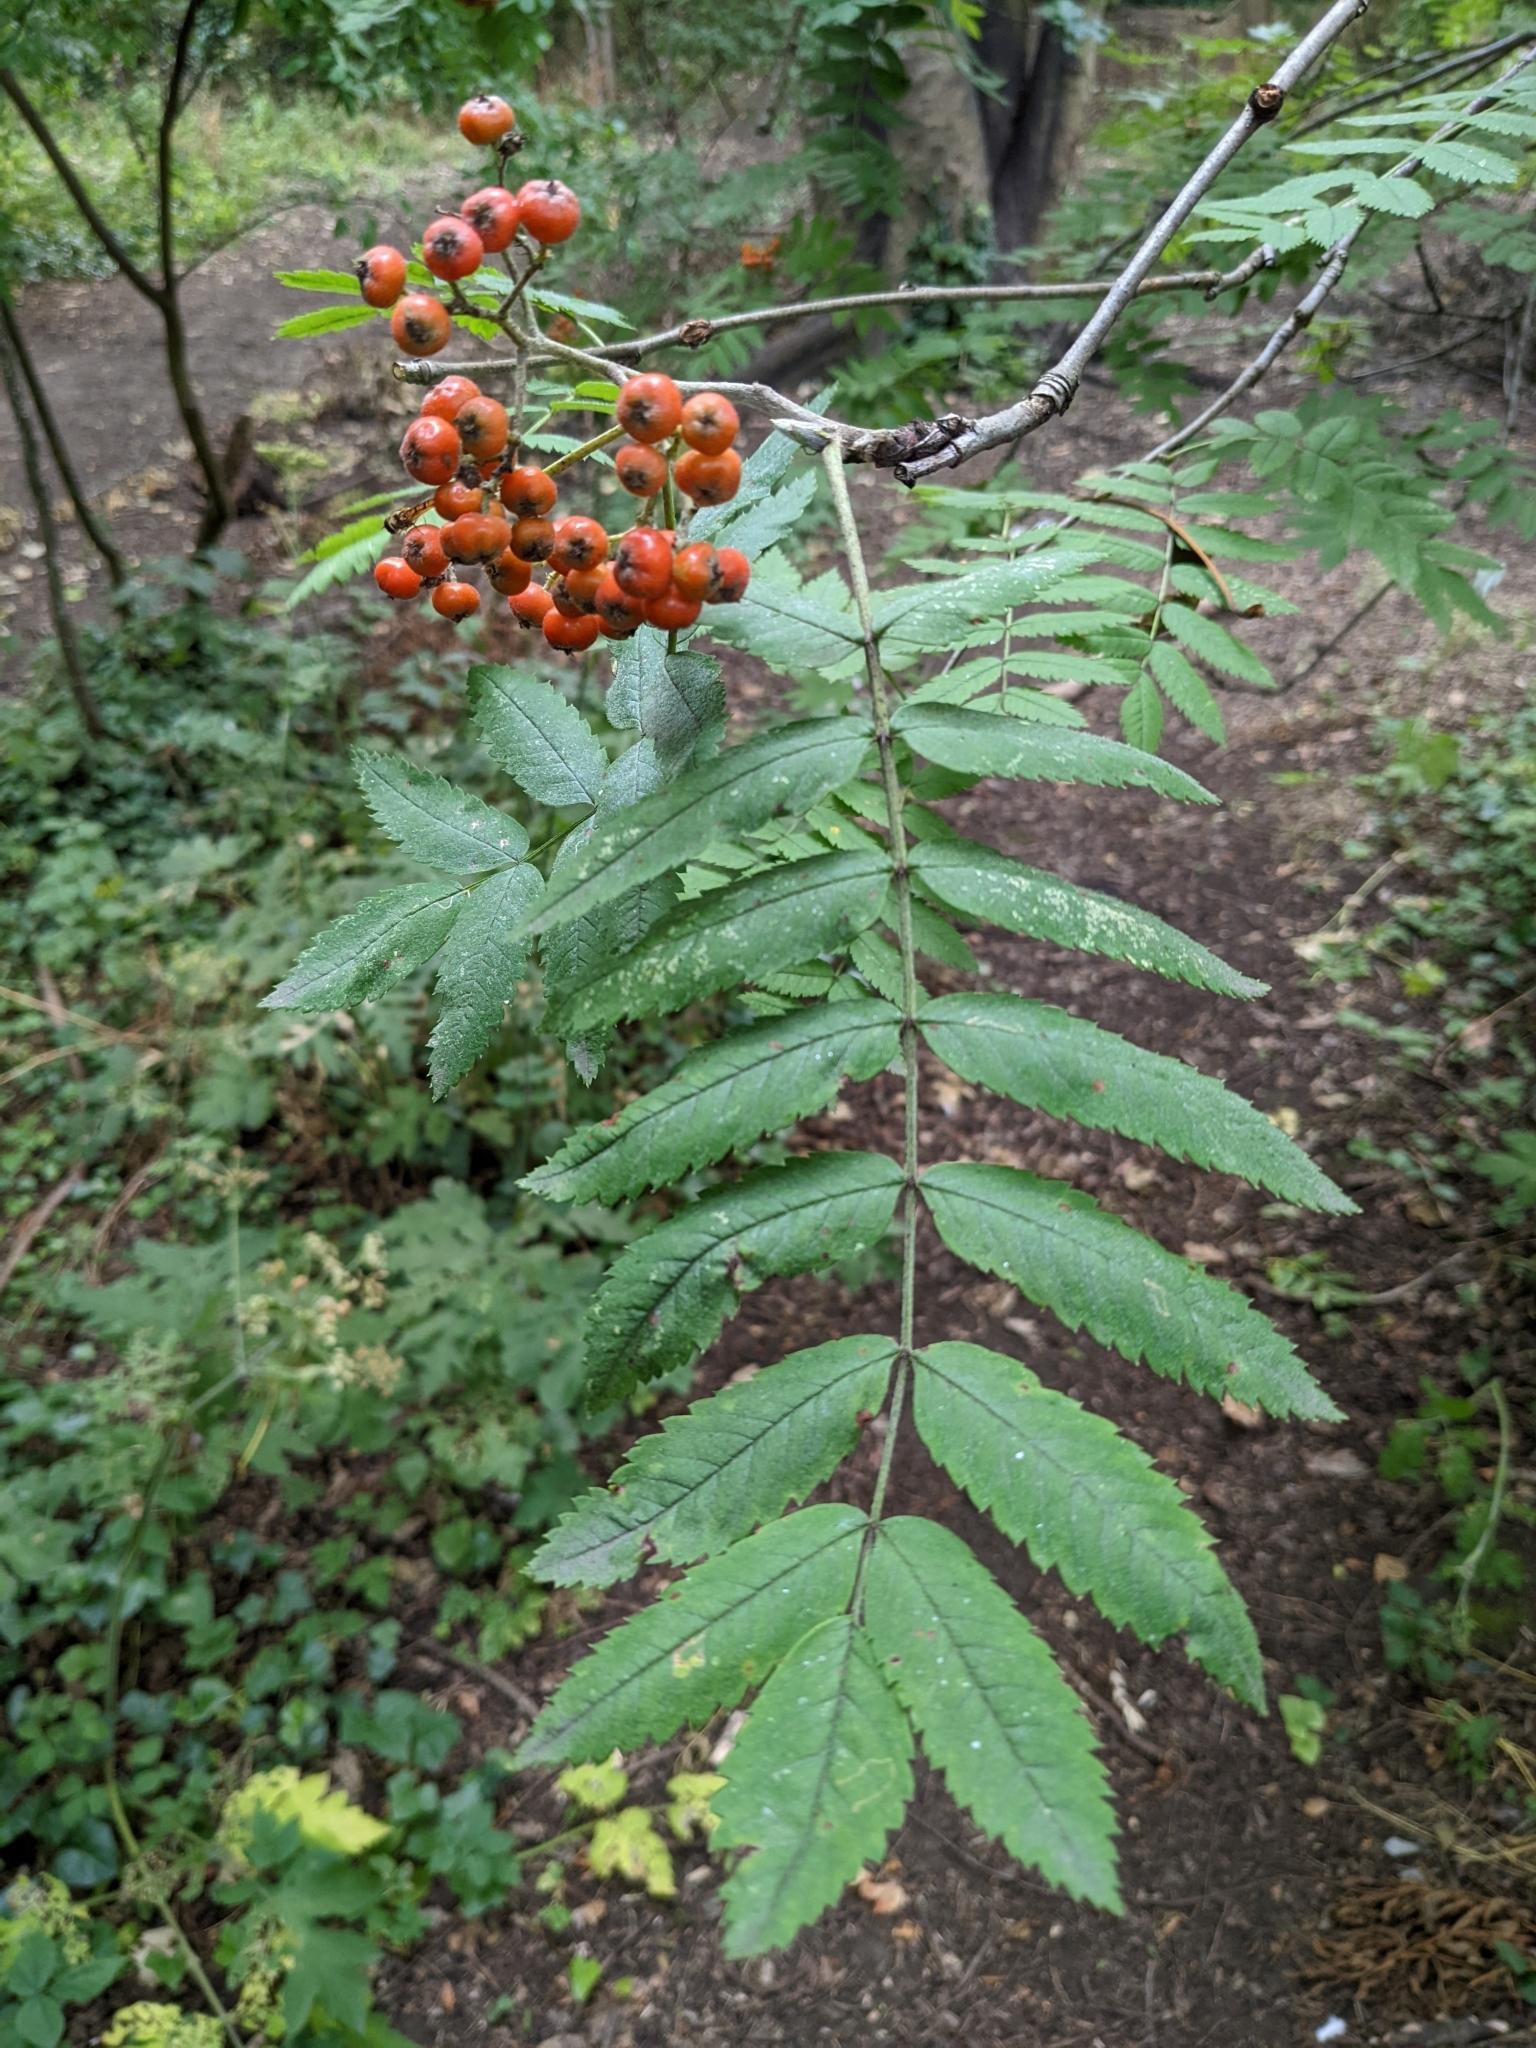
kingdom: Plantae
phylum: Tracheophyta
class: Magnoliopsida
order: Rosales
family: Rosaceae
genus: Sorbus
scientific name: Sorbus aucuparia
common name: Rowan
